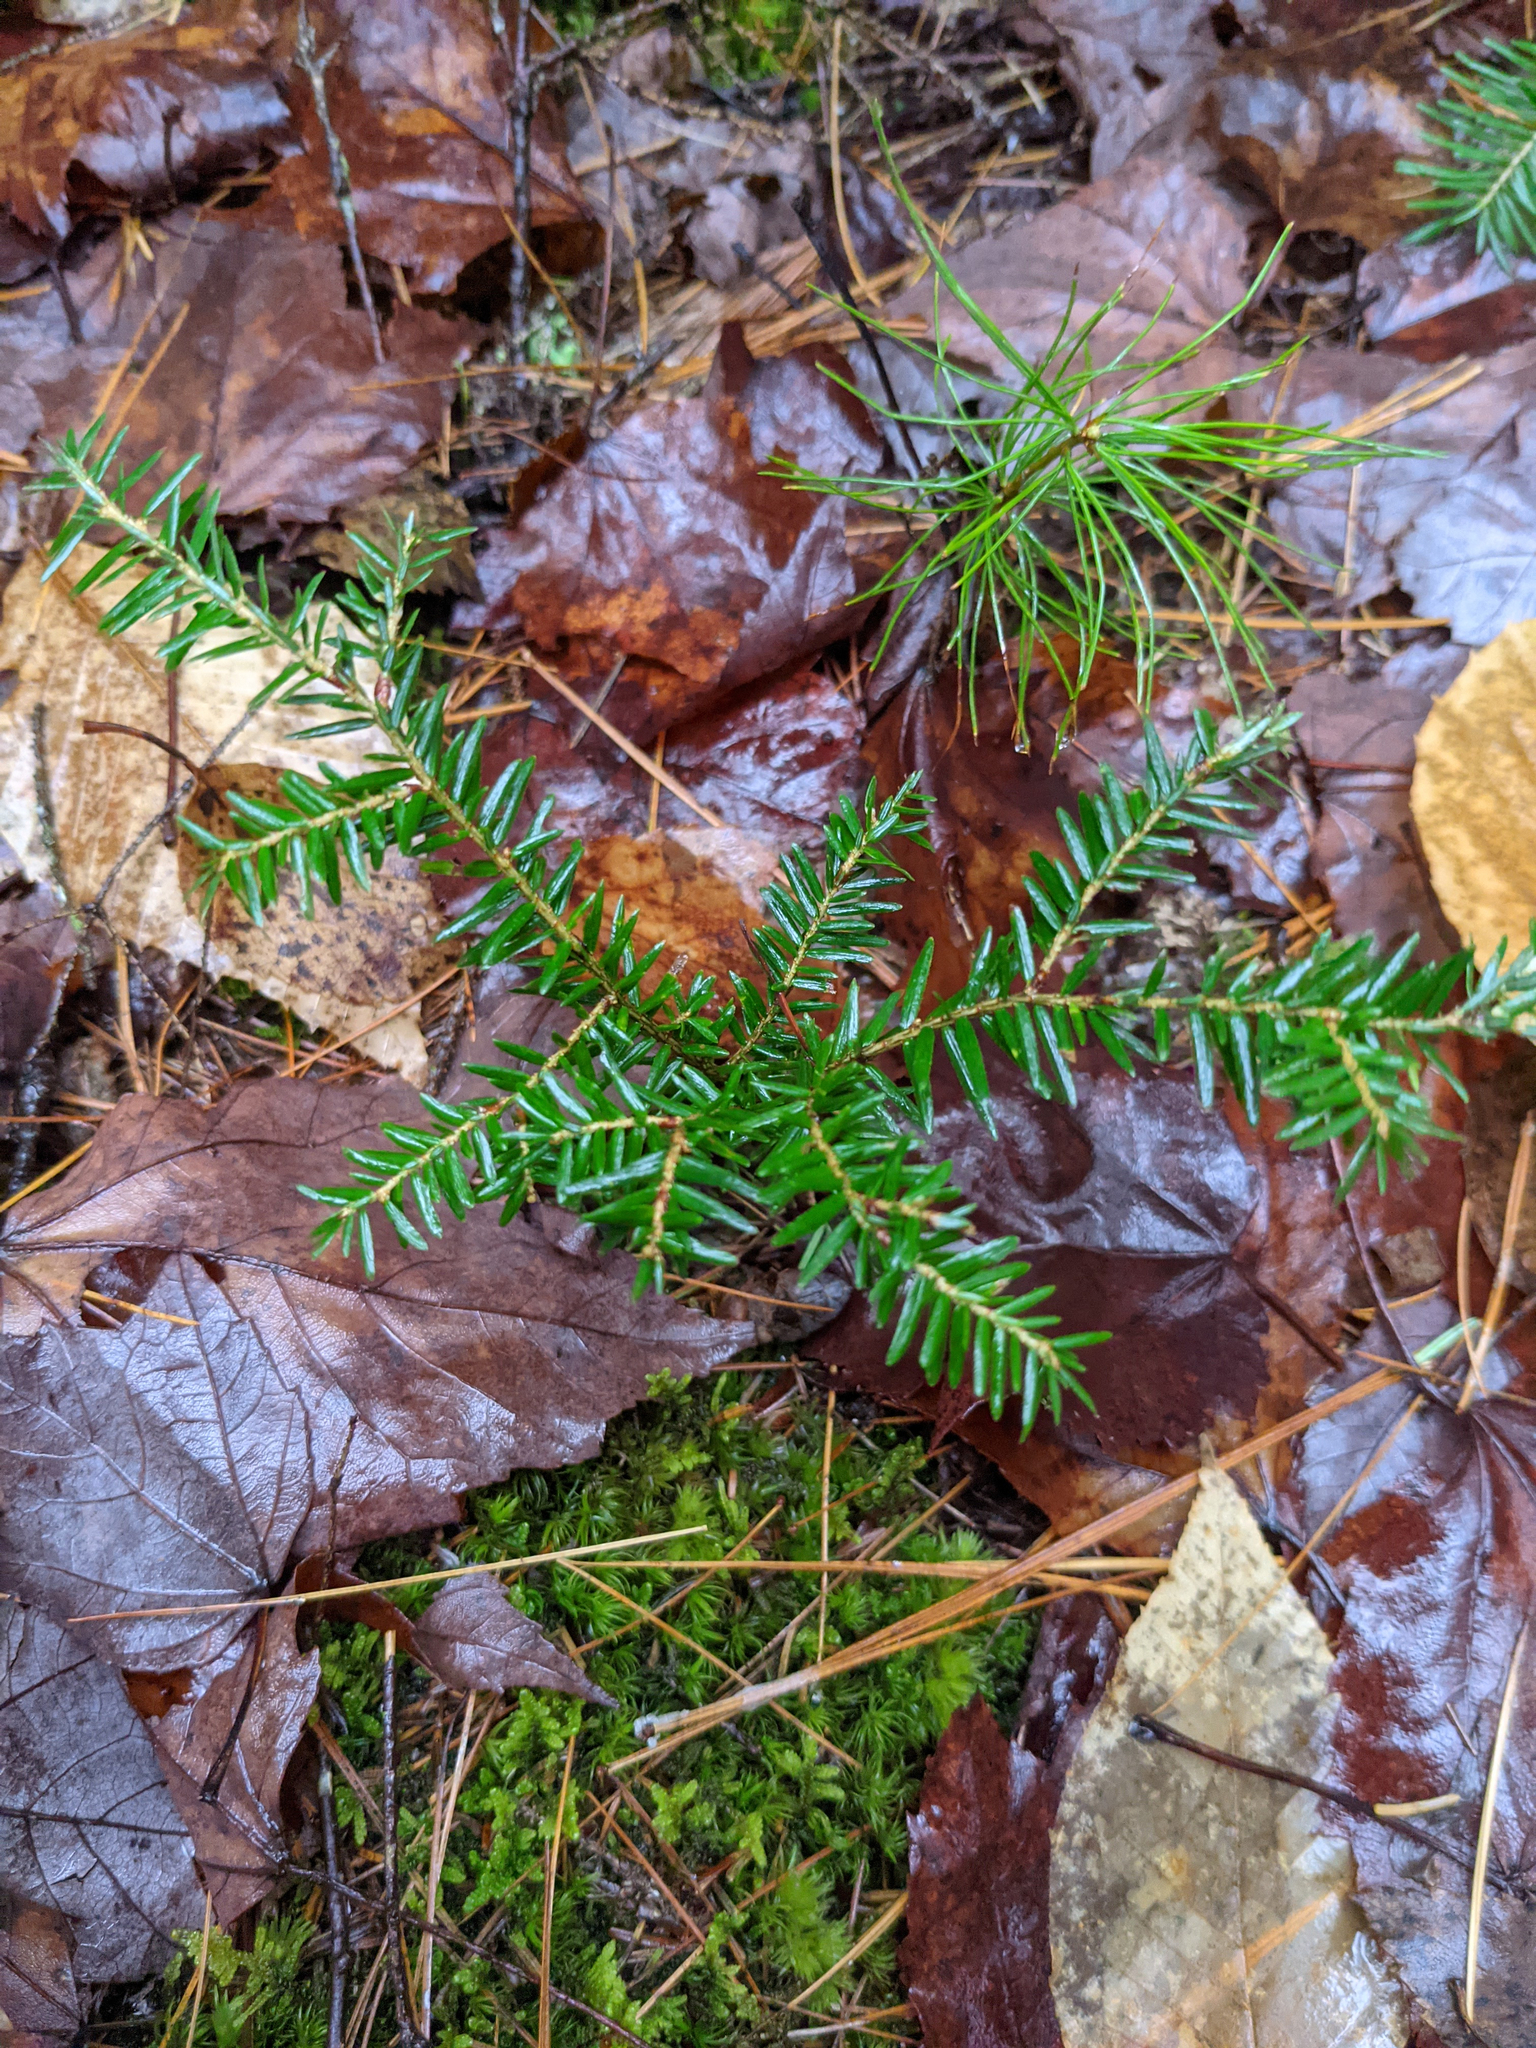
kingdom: Plantae
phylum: Tracheophyta
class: Pinopsida
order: Pinales
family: Pinaceae
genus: Tsuga
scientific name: Tsuga canadensis
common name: Eastern hemlock
